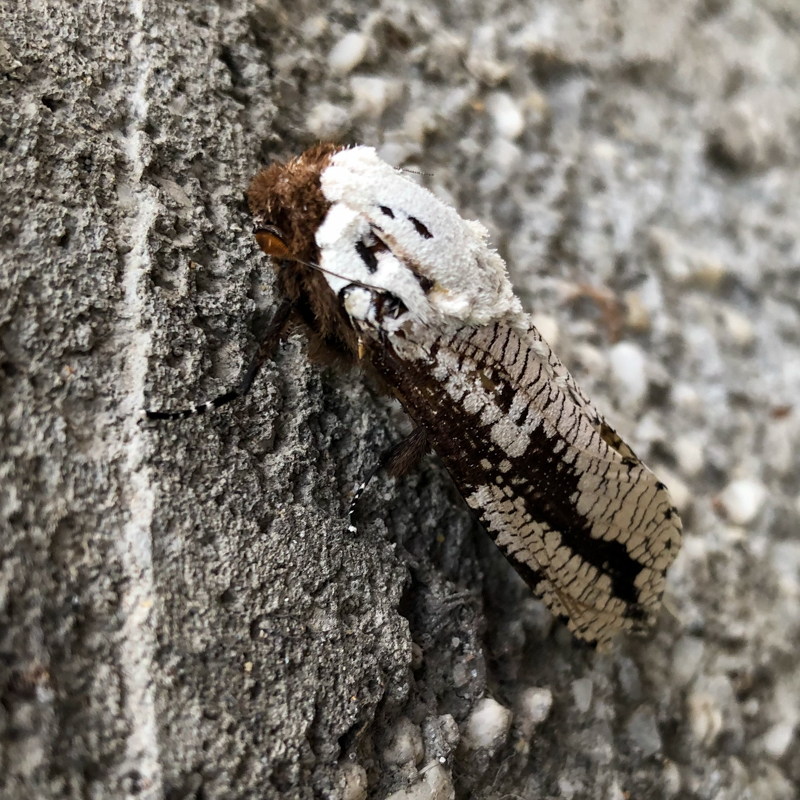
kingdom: Animalia
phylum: Arthropoda
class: Insecta
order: Lepidoptera
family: Cossidae
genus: Morpheis
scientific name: Morpheis pyracmon
